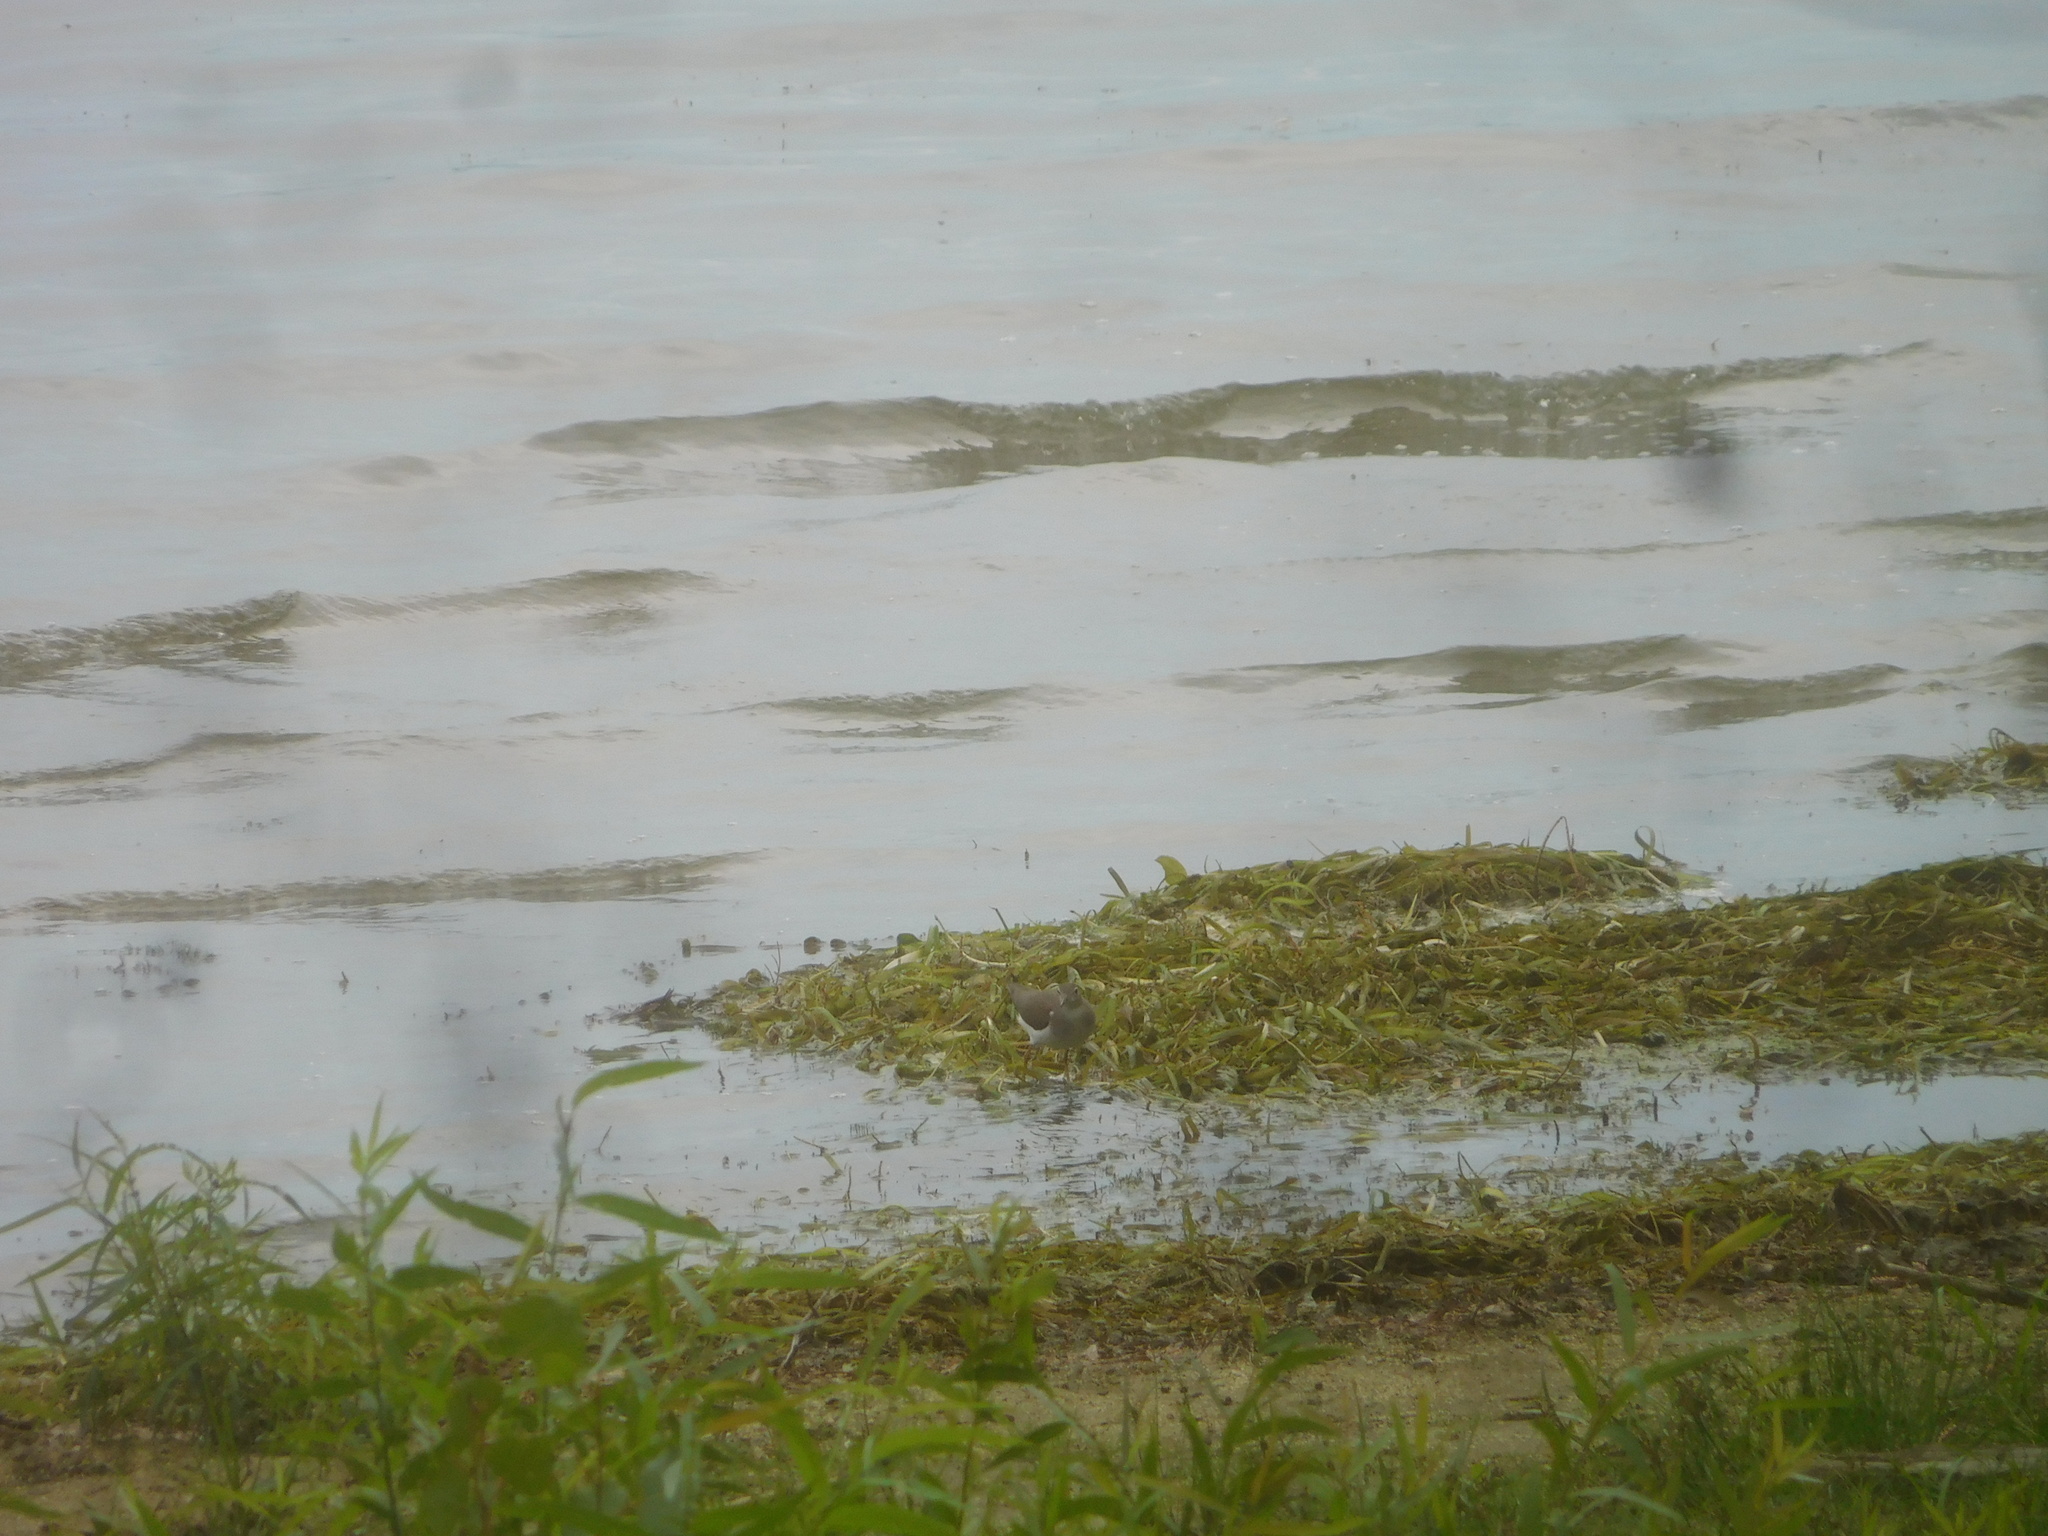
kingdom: Animalia
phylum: Chordata
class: Aves
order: Charadriiformes
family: Scolopacidae
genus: Actitis
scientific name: Actitis macularius
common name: Spotted sandpiper
